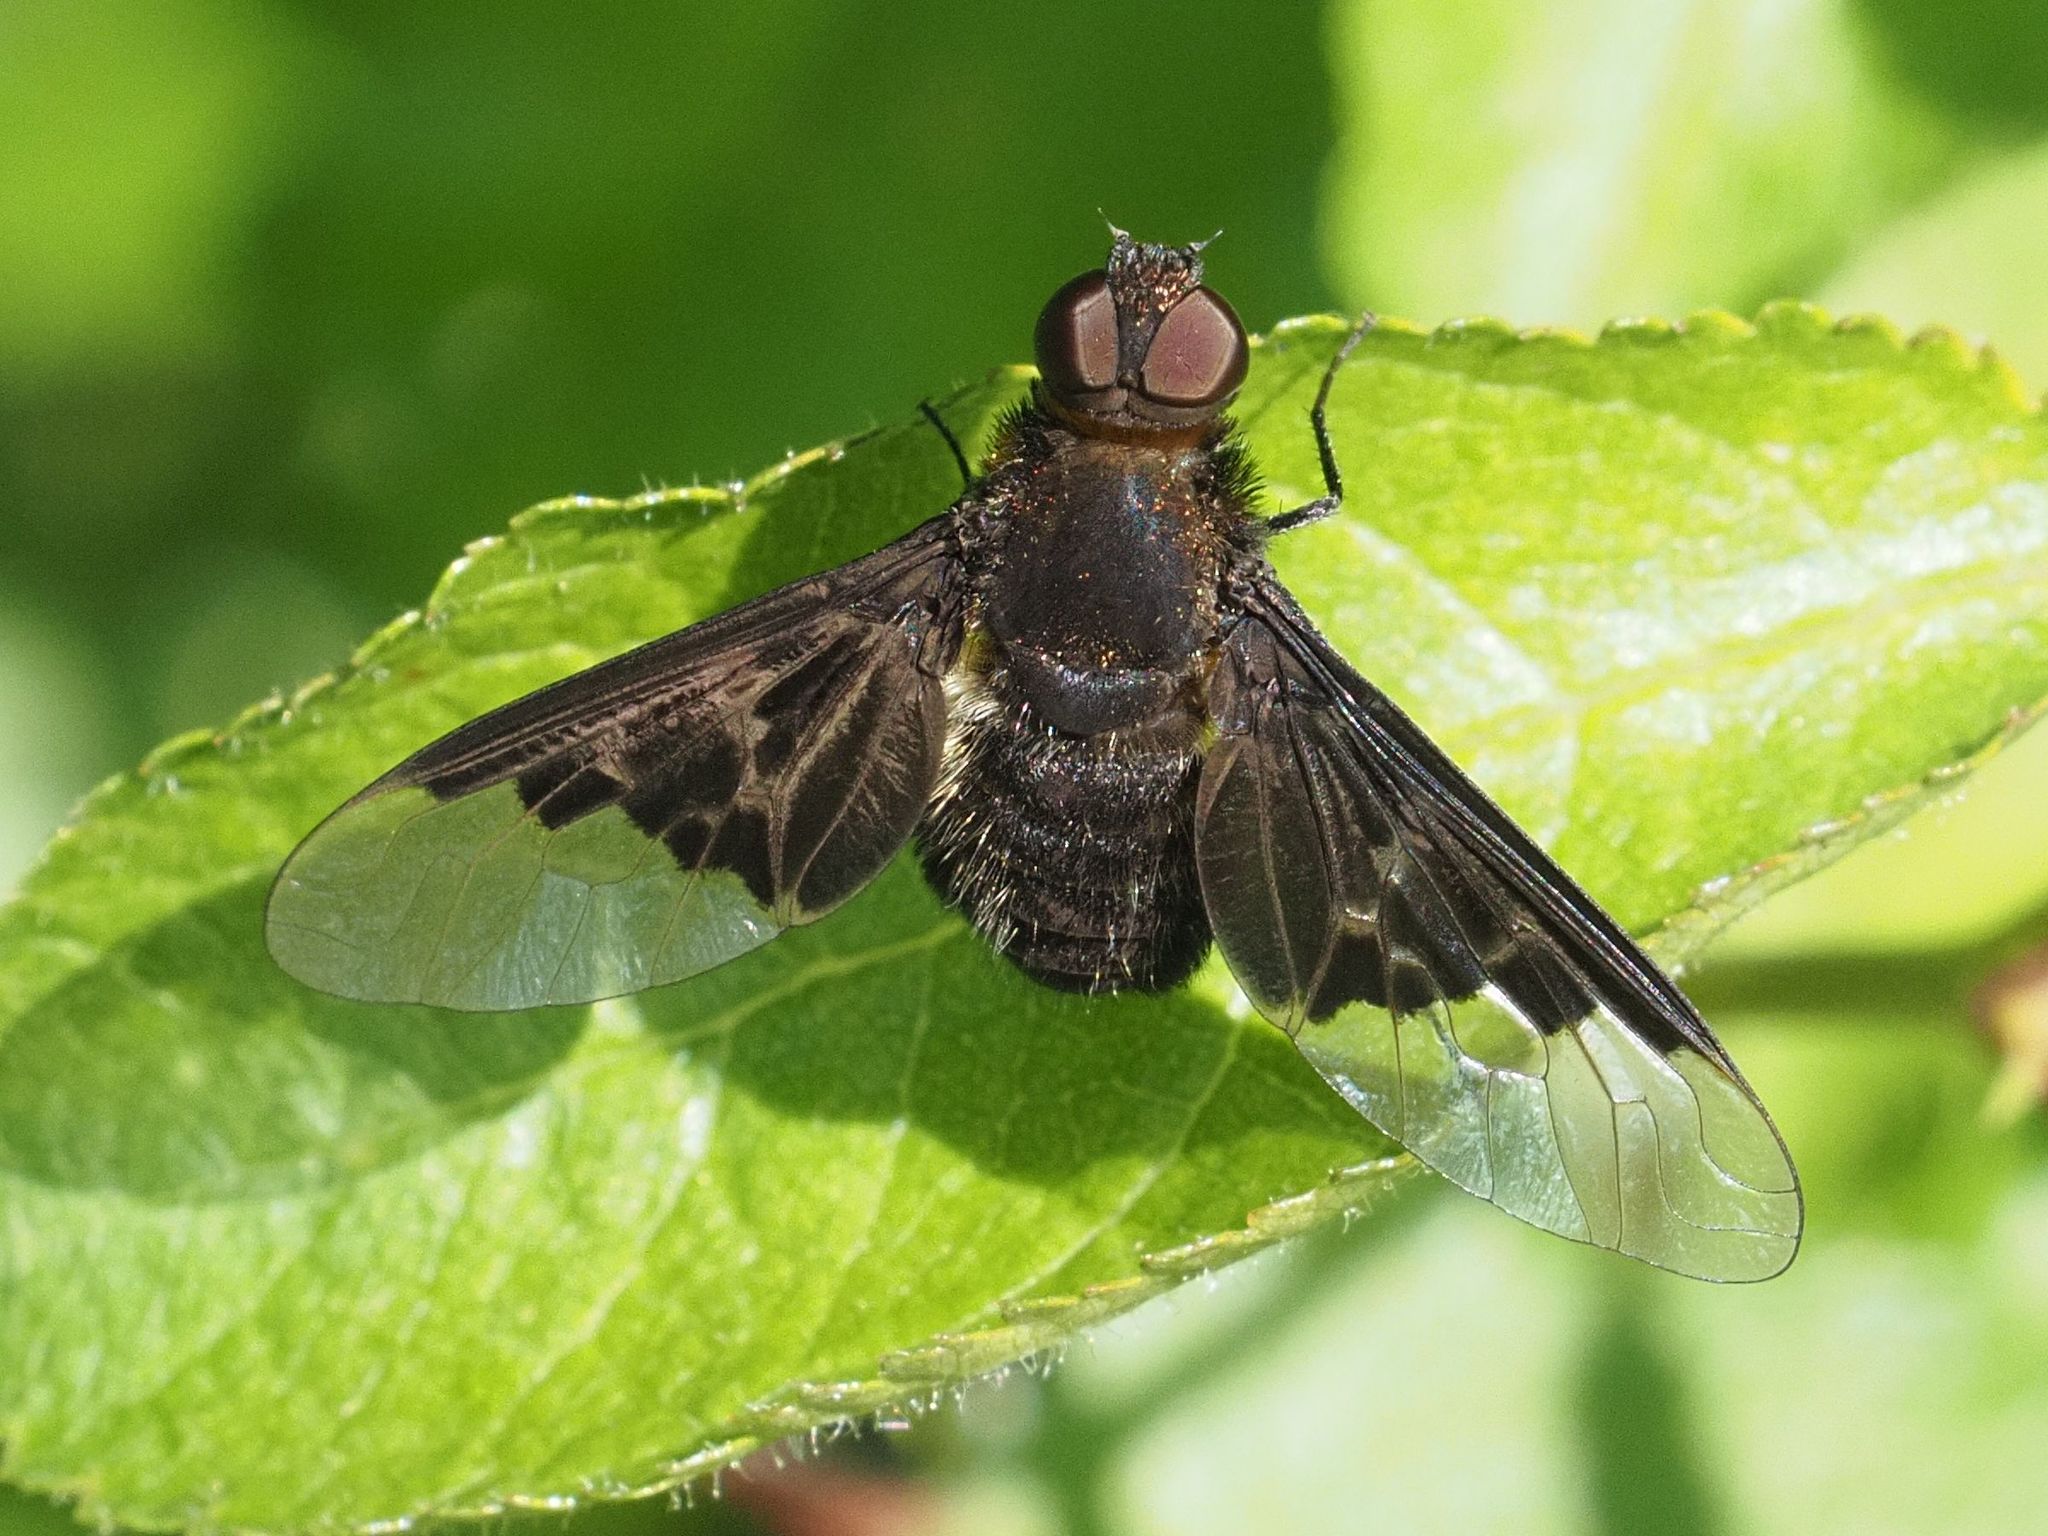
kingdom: Animalia
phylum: Arthropoda
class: Insecta
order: Diptera
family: Bombyliidae
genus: Hemipenthes
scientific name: Hemipenthes morio
